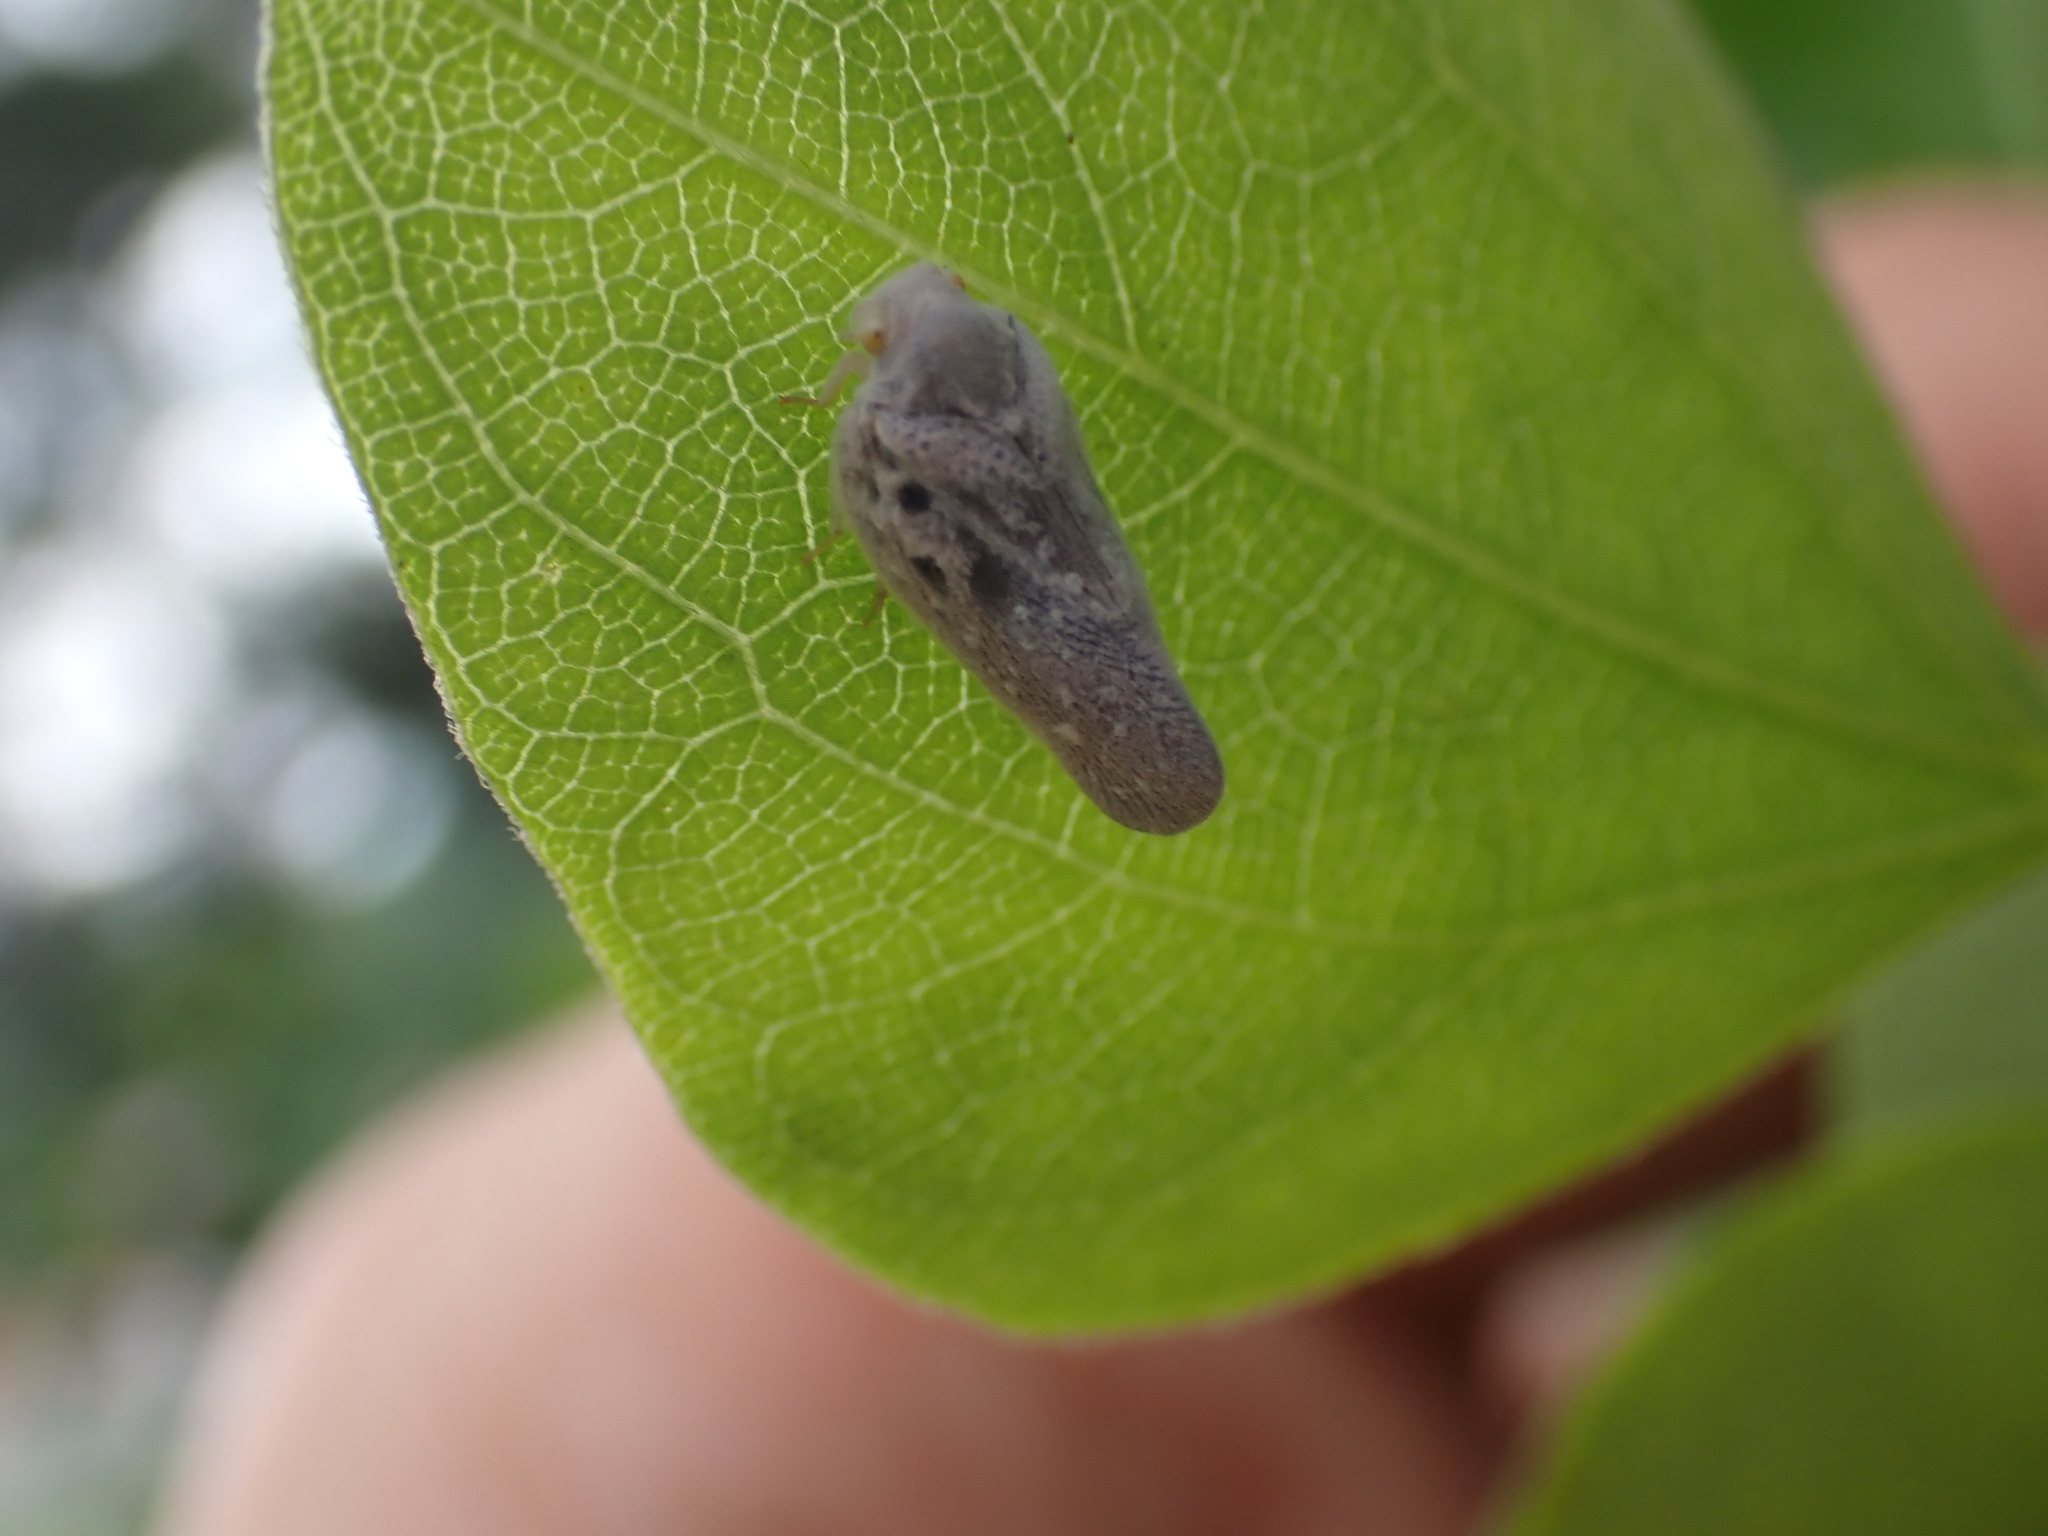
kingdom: Animalia
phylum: Arthropoda
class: Insecta
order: Hemiptera
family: Flatidae
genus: Metcalfa
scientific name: Metcalfa pruinosa
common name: Citrus flatid planthopper
